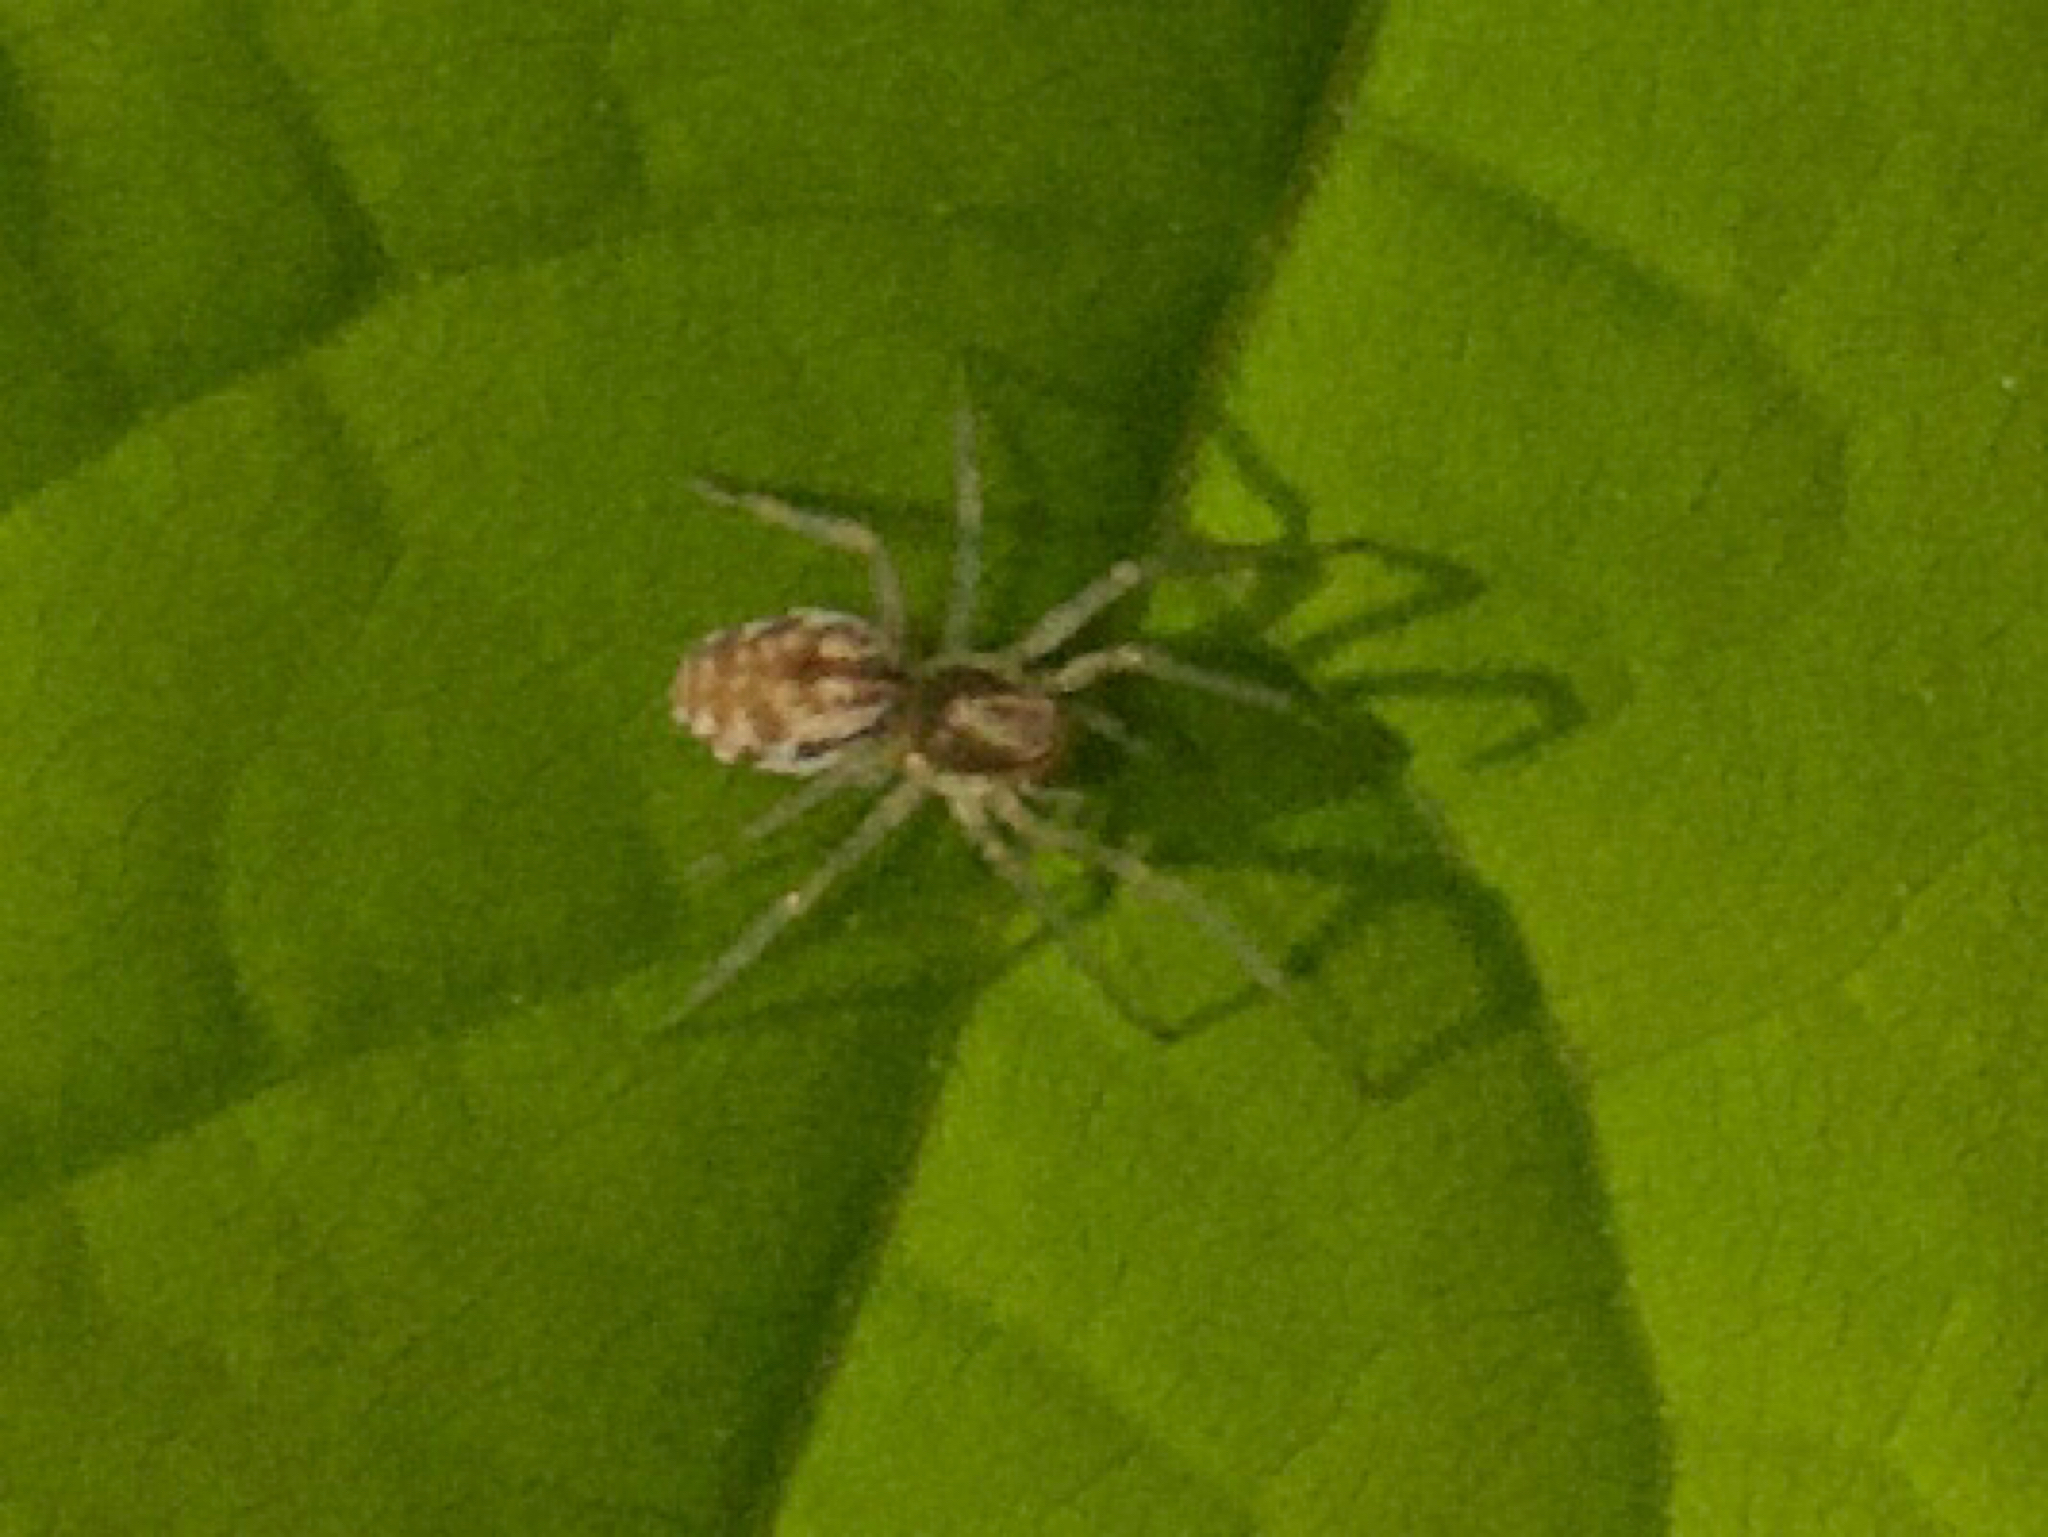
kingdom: Animalia
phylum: Arthropoda
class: Arachnida
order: Araneae
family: Dictynidae
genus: Nigma
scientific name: Nigma
